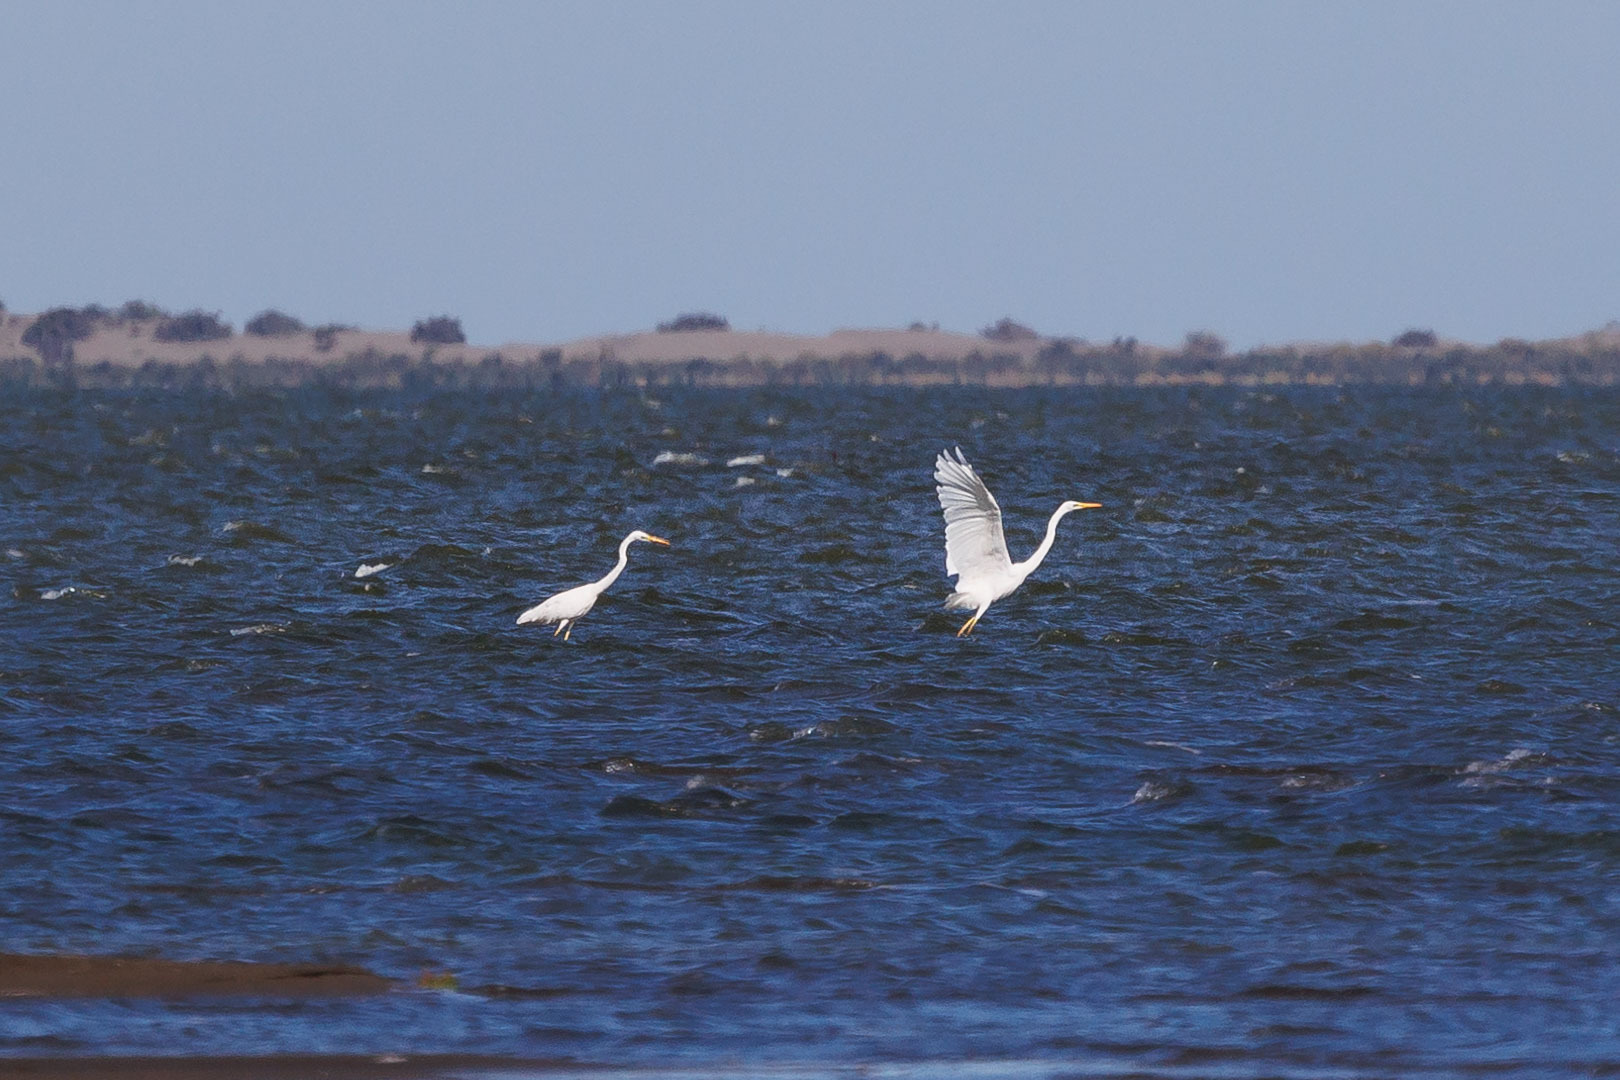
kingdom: Animalia
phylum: Chordata
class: Aves
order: Pelecaniformes
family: Ardeidae
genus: Ardea
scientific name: Ardea alba
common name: Great egret
